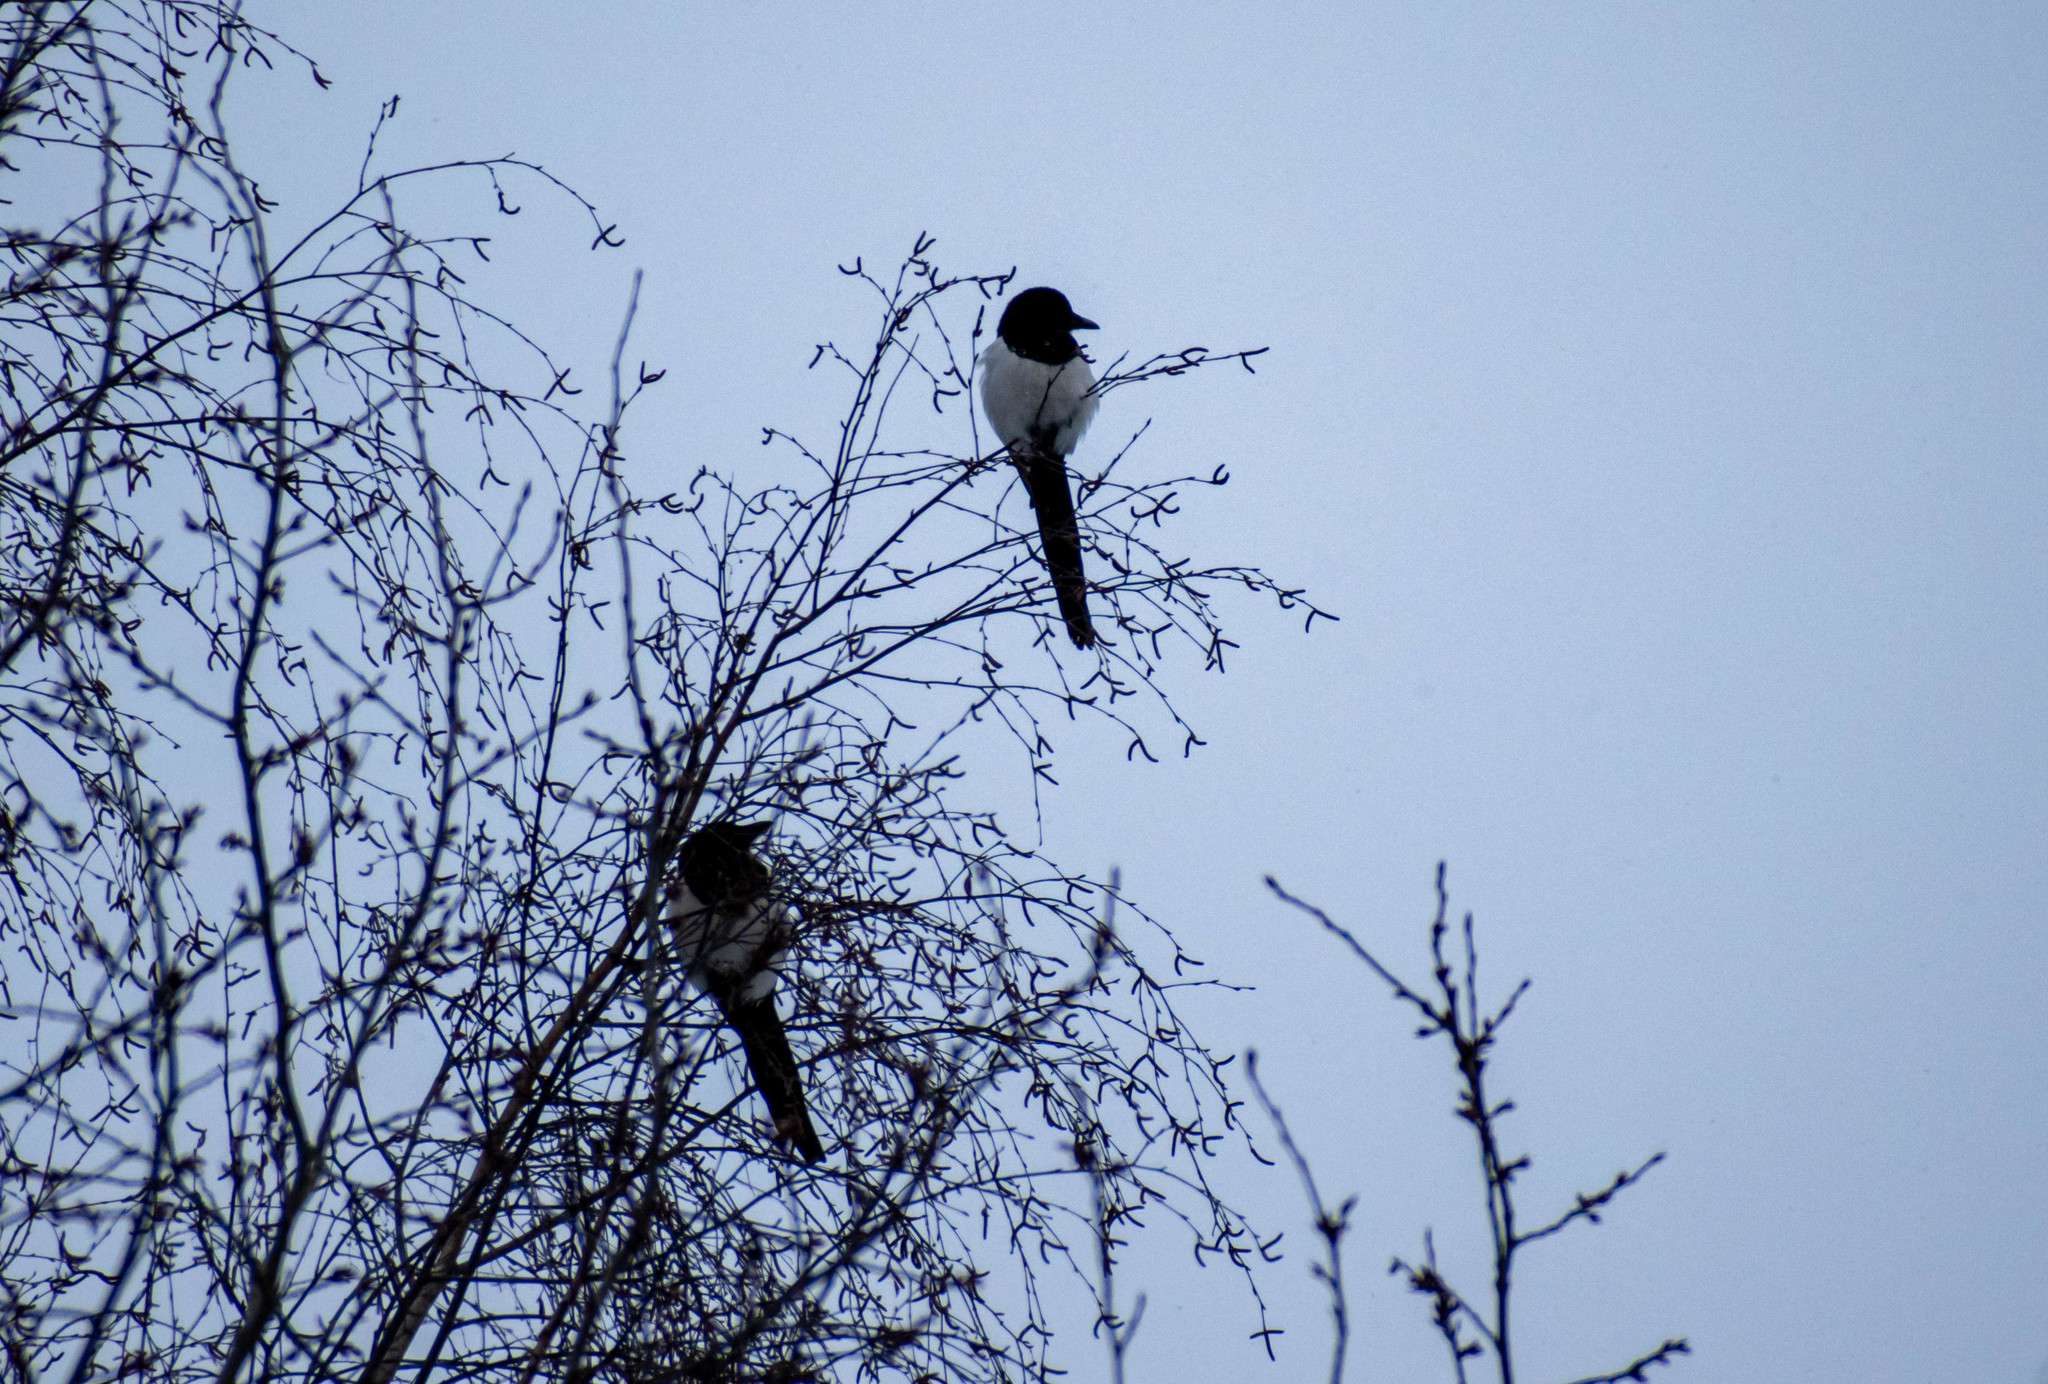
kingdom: Animalia
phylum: Chordata
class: Aves
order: Passeriformes
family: Corvidae
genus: Pica
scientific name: Pica pica
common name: Eurasian magpie
